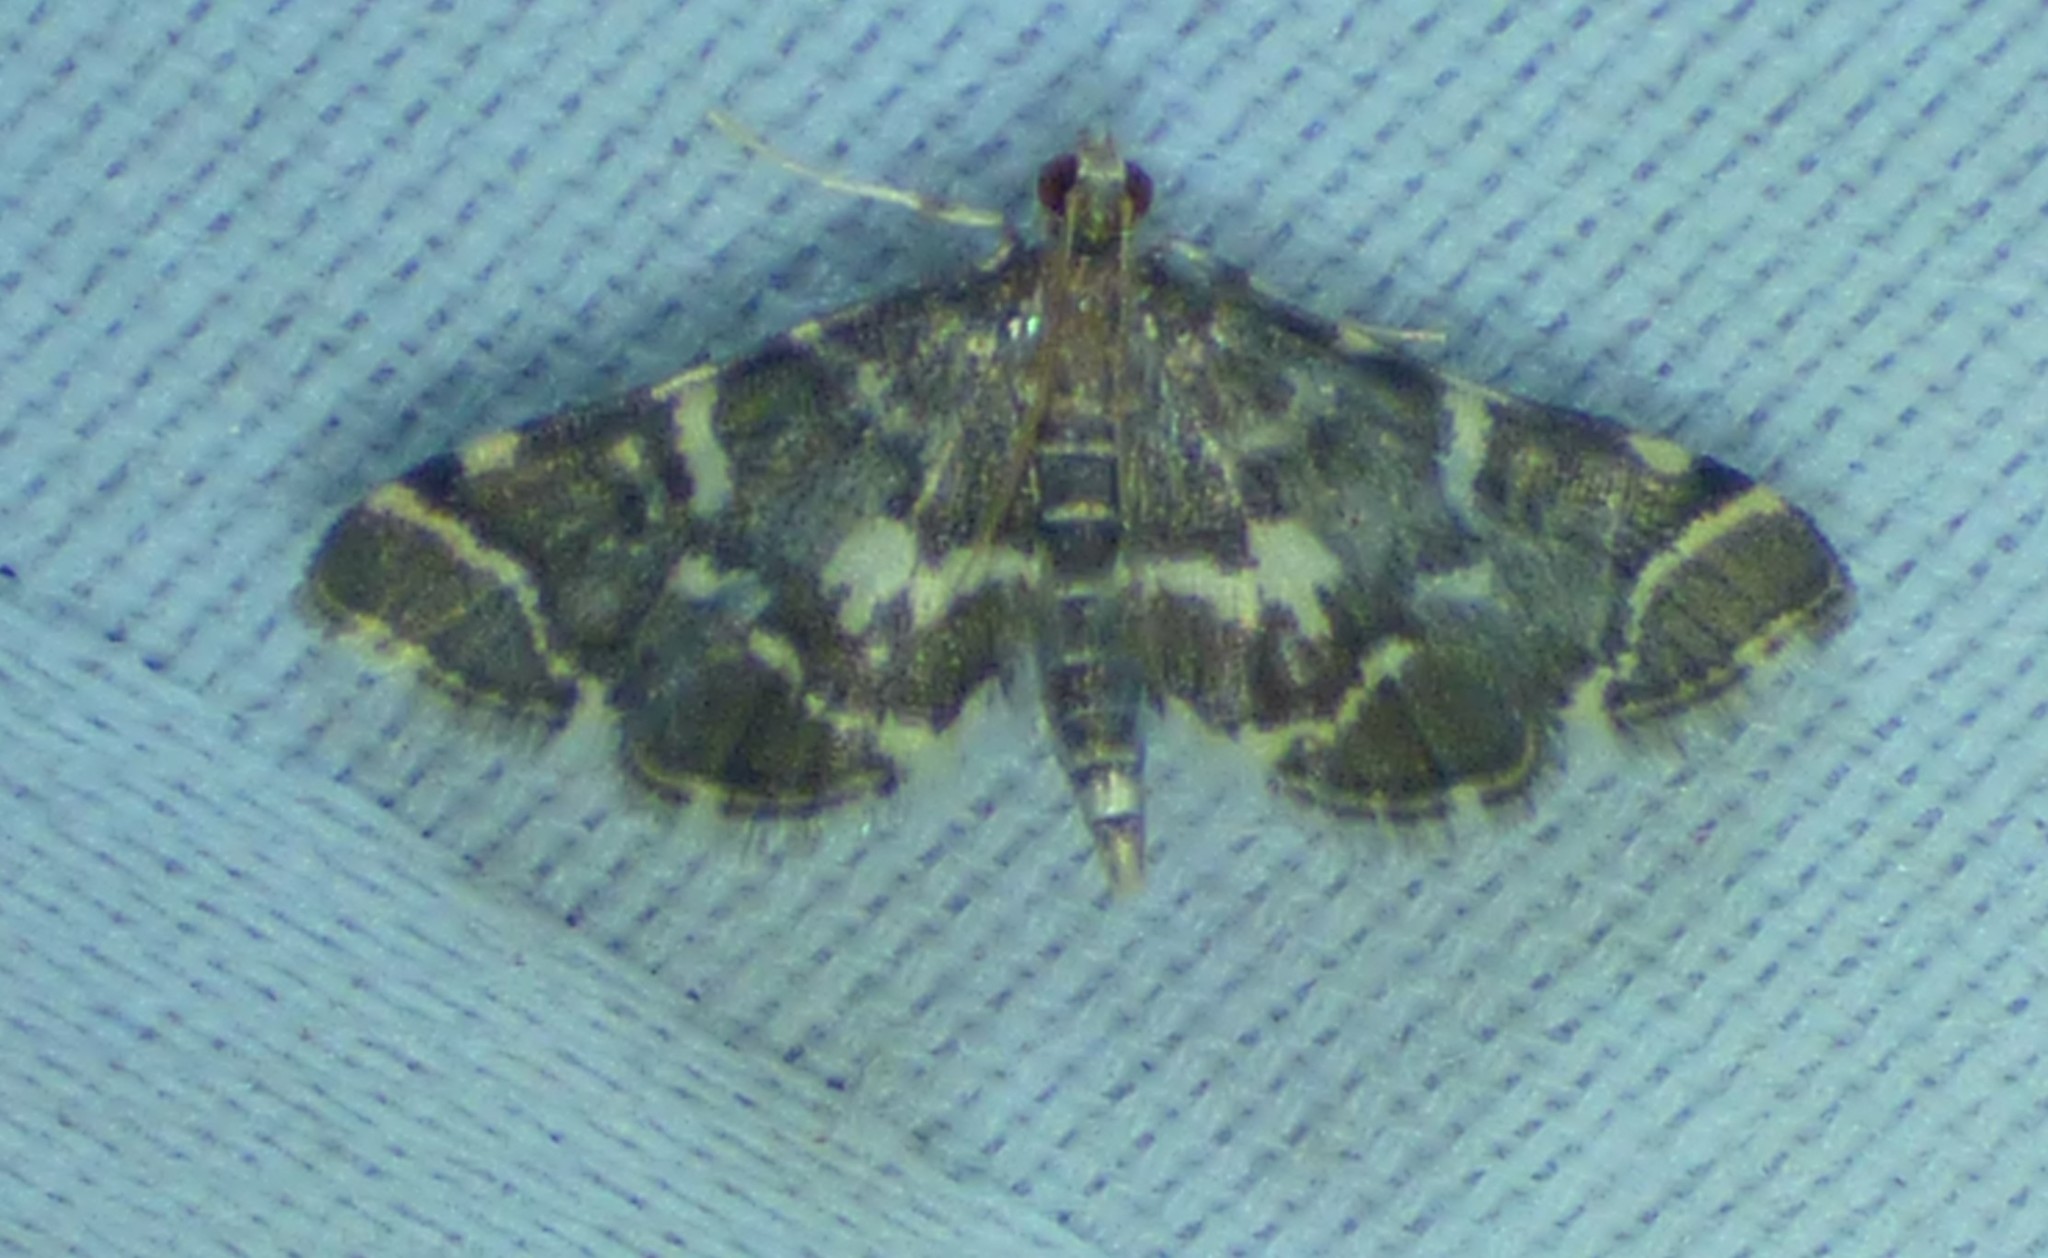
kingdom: Animalia
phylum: Arthropoda
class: Insecta
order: Lepidoptera
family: Crambidae
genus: Anageshna
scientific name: Anageshna primordialis
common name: Yellow-spotted webworm moth
